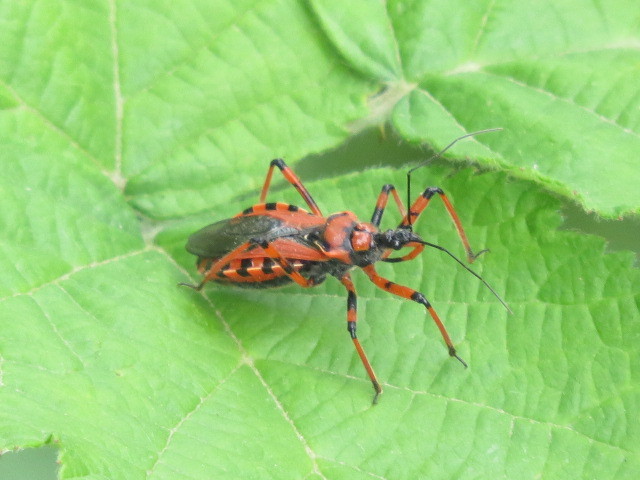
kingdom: Animalia
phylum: Arthropoda
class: Insecta
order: Hemiptera
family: Reduviidae
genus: Rhynocoris
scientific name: Rhynocoris iracundus
